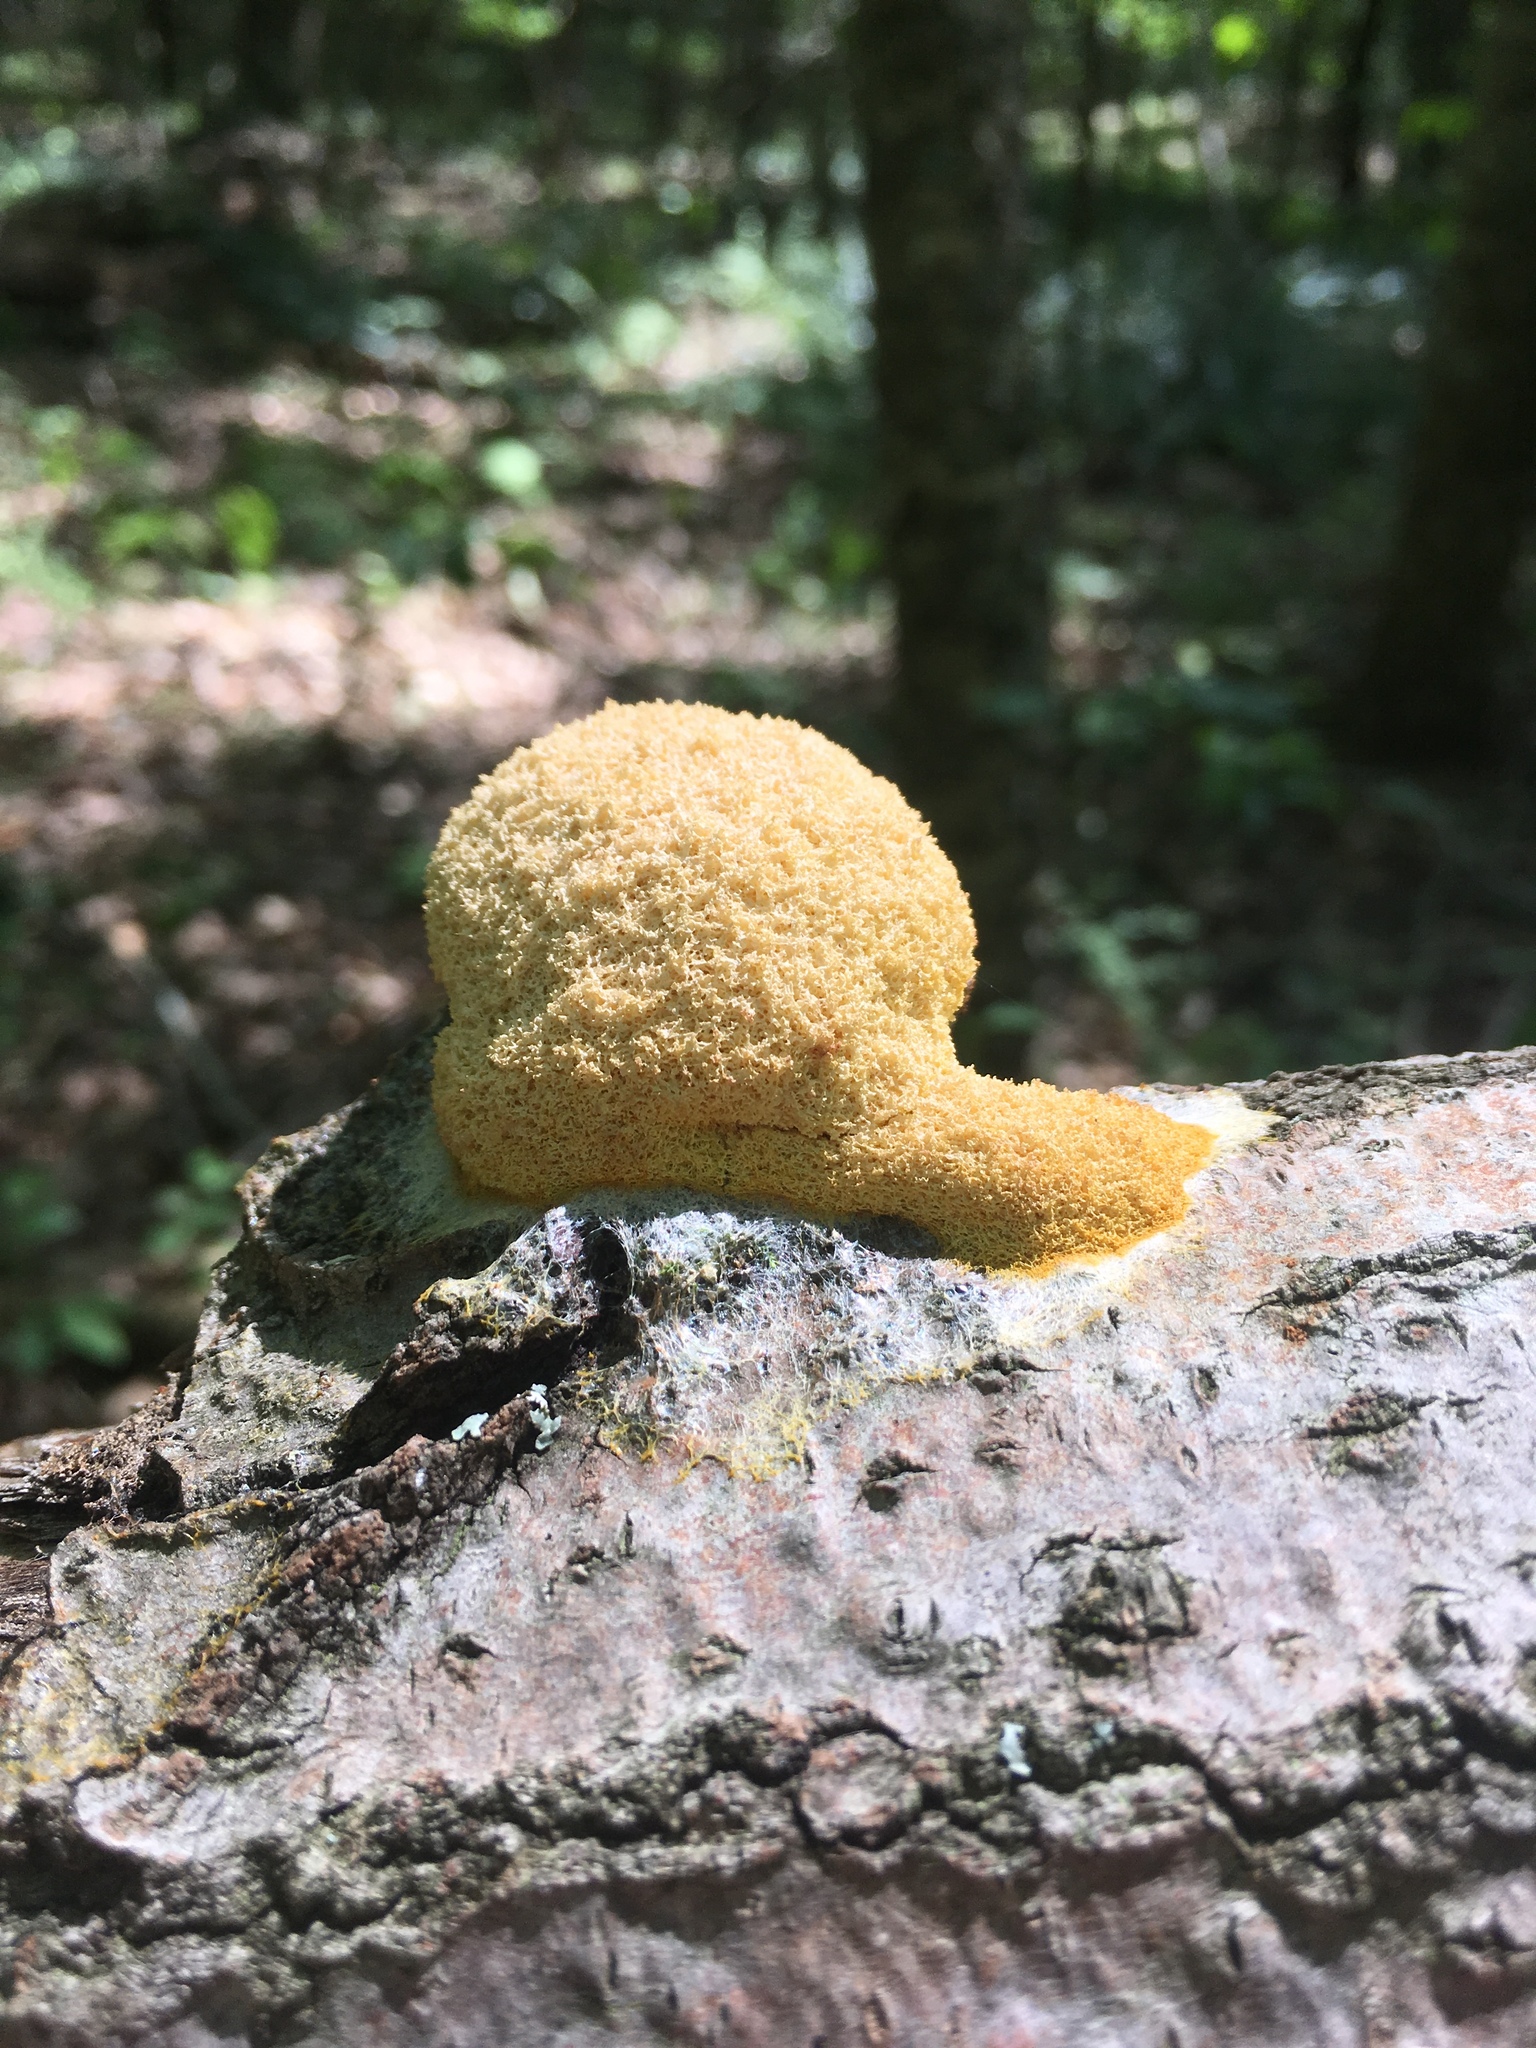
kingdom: Protozoa
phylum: Mycetozoa
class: Myxomycetes
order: Physarales
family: Physaraceae
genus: Fuligo
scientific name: Fuligo septica
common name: Dog vomit slime mold
